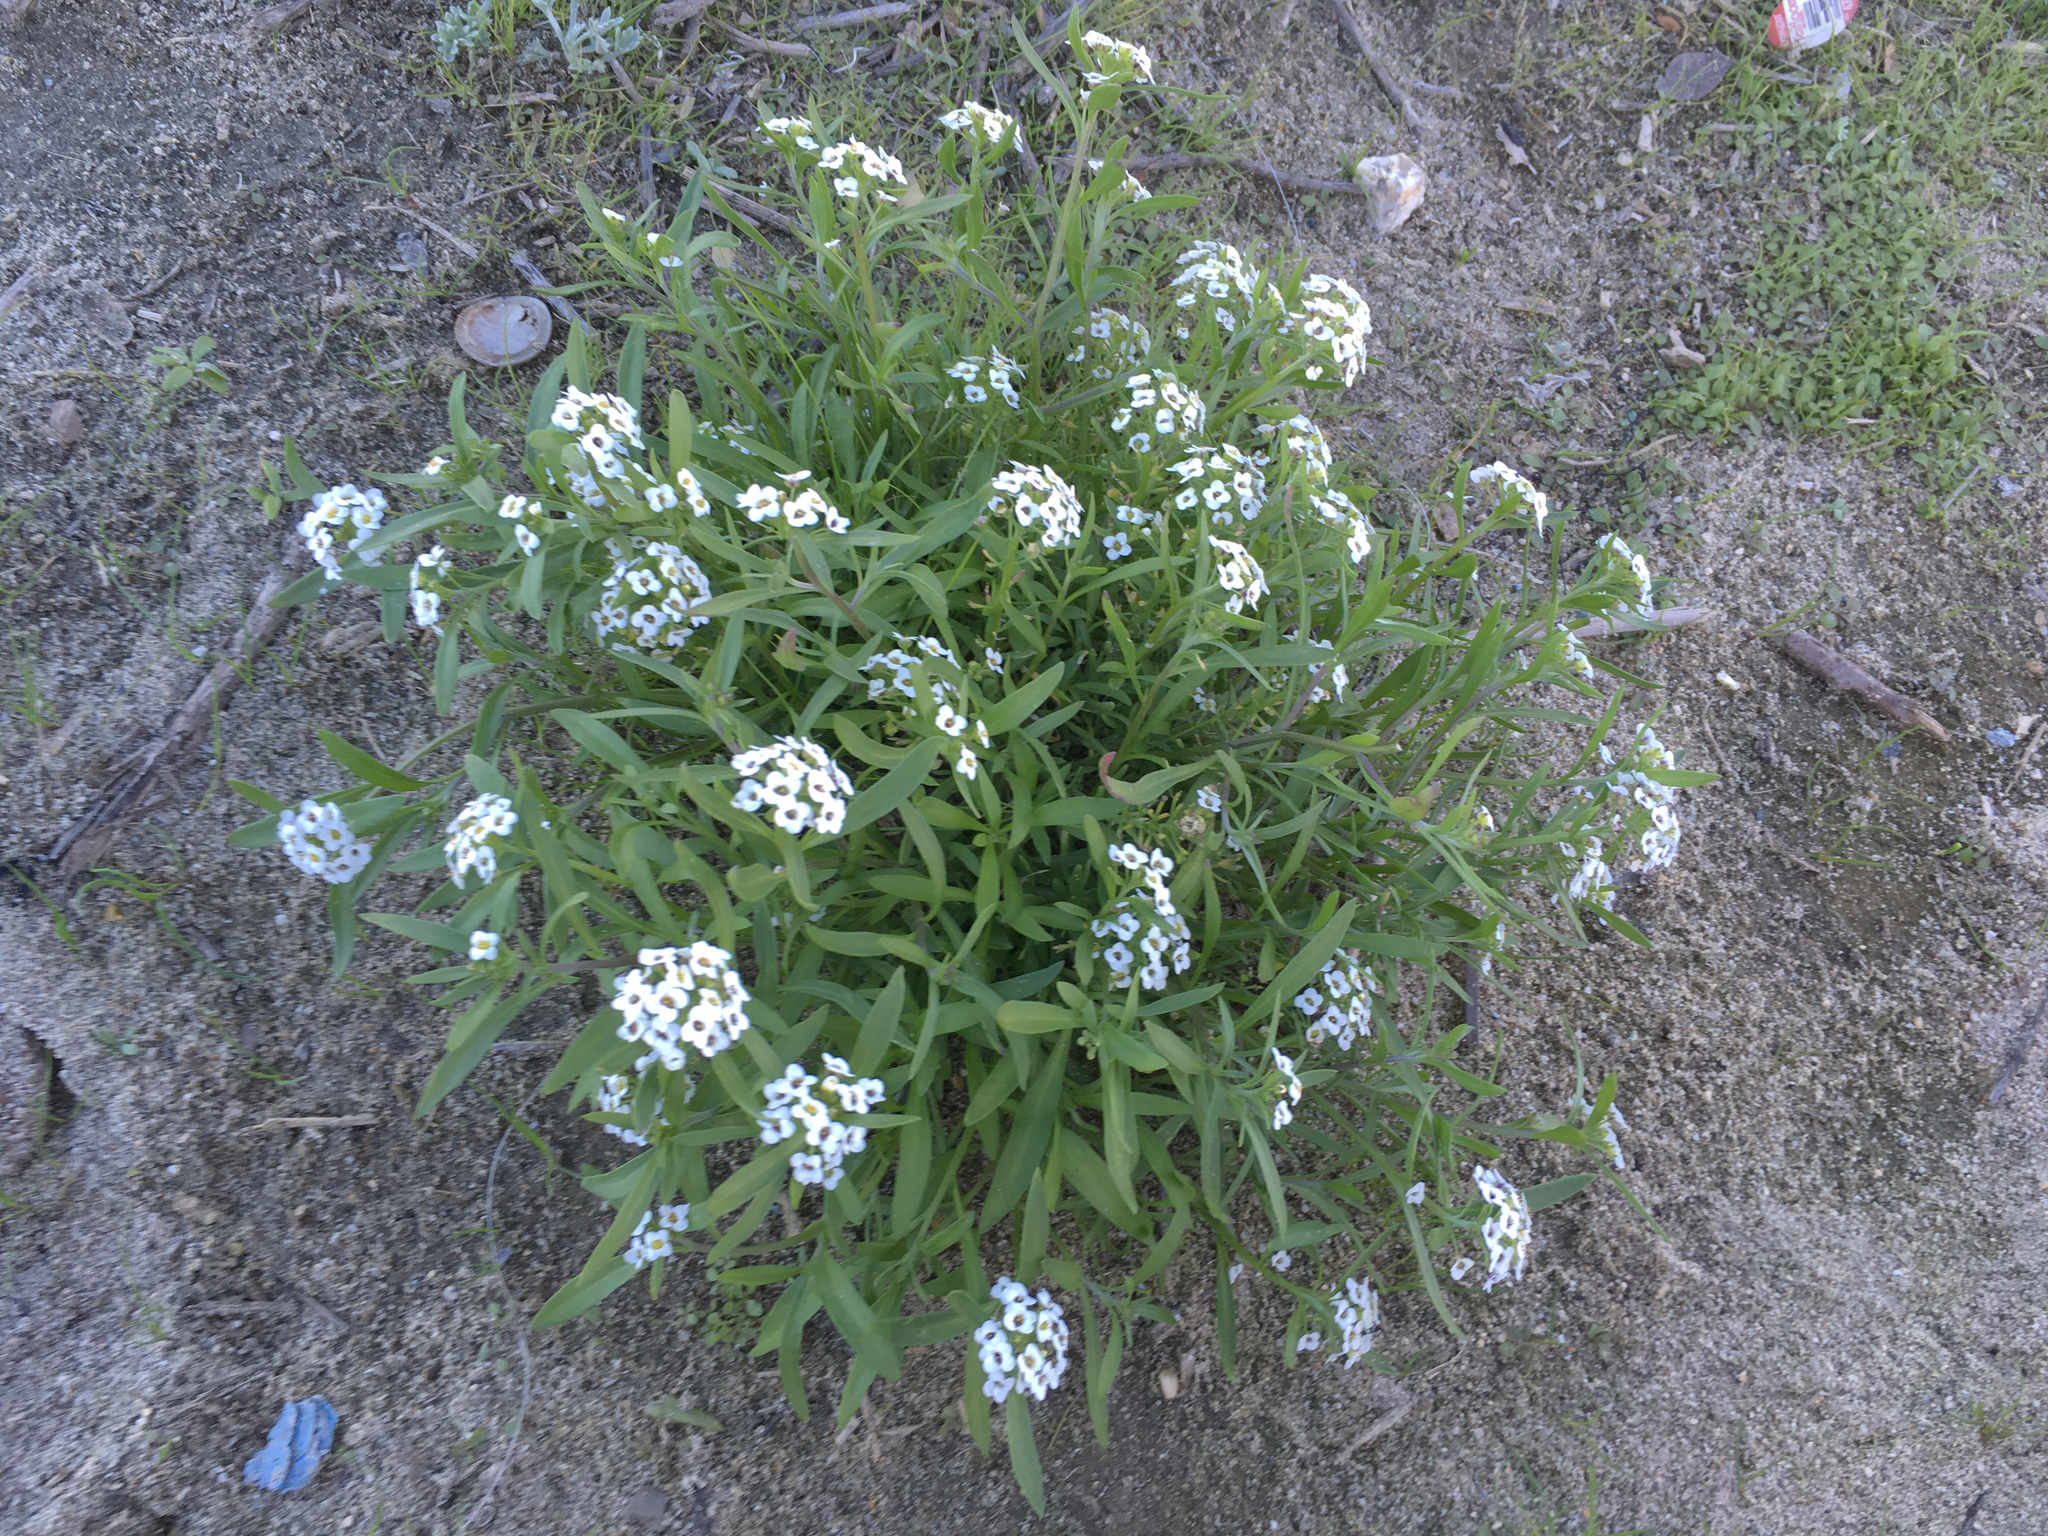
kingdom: Plantae
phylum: Tracheophyta
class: Magnoliopsida
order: Brassicales
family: Brassicaceae
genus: Lobularia
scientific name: Lobularia maritima
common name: Sweet alison
